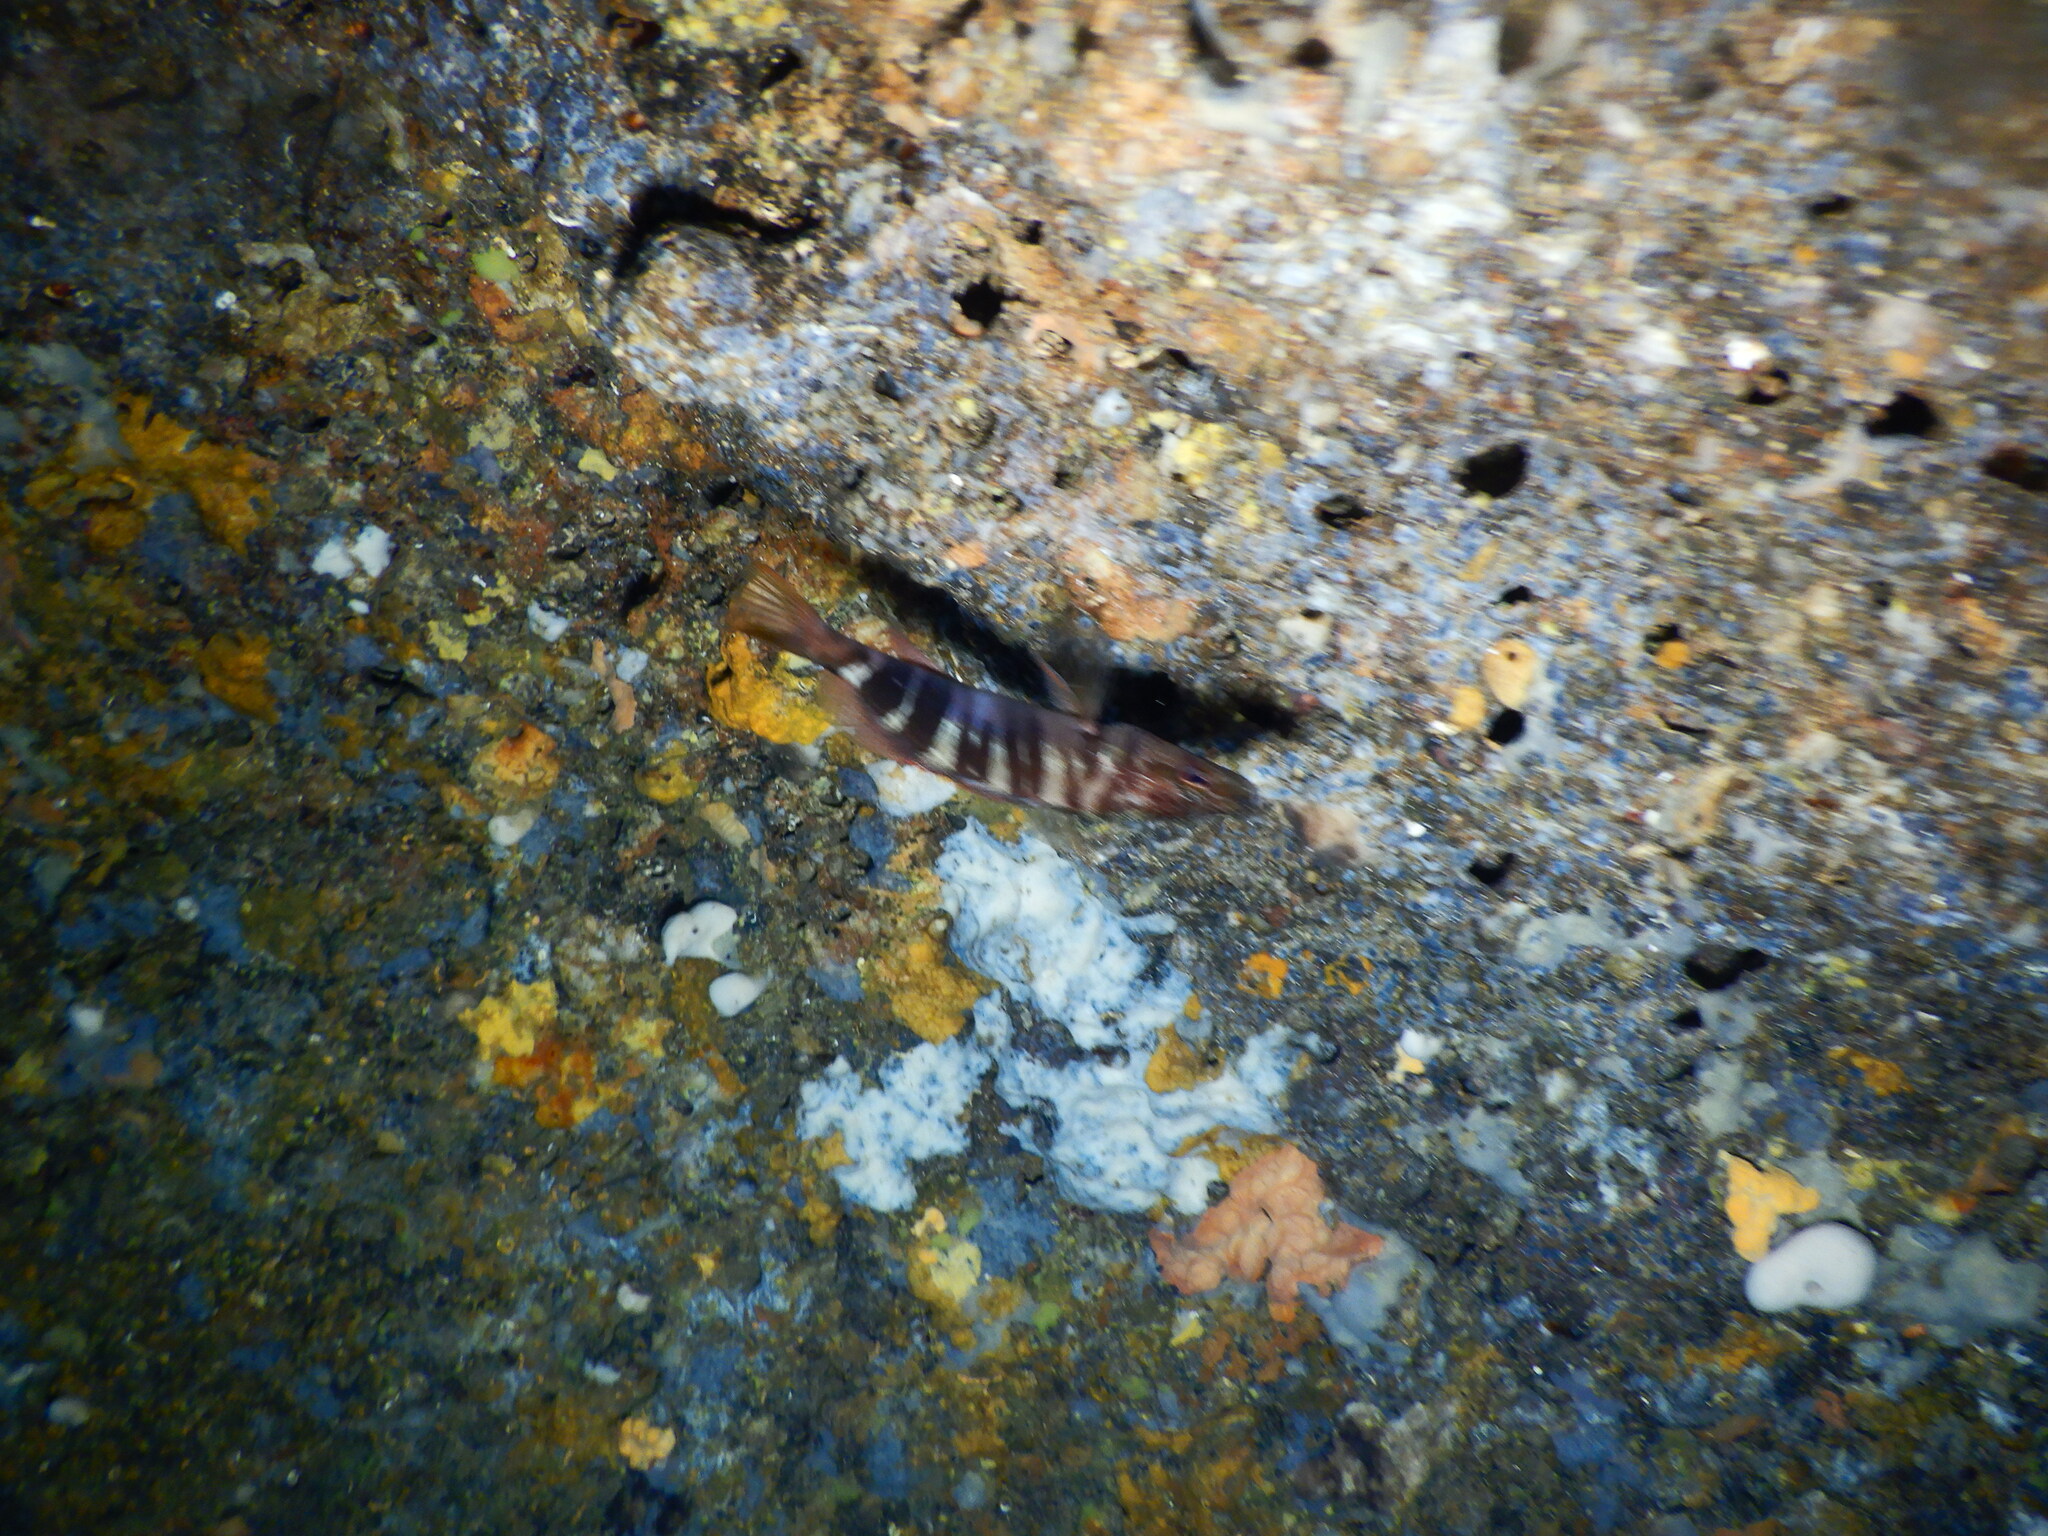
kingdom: Animalia
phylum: Chordata
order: Perciformes
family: Serranidae
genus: Serranus
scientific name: Serranus scriba
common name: Painted comber
